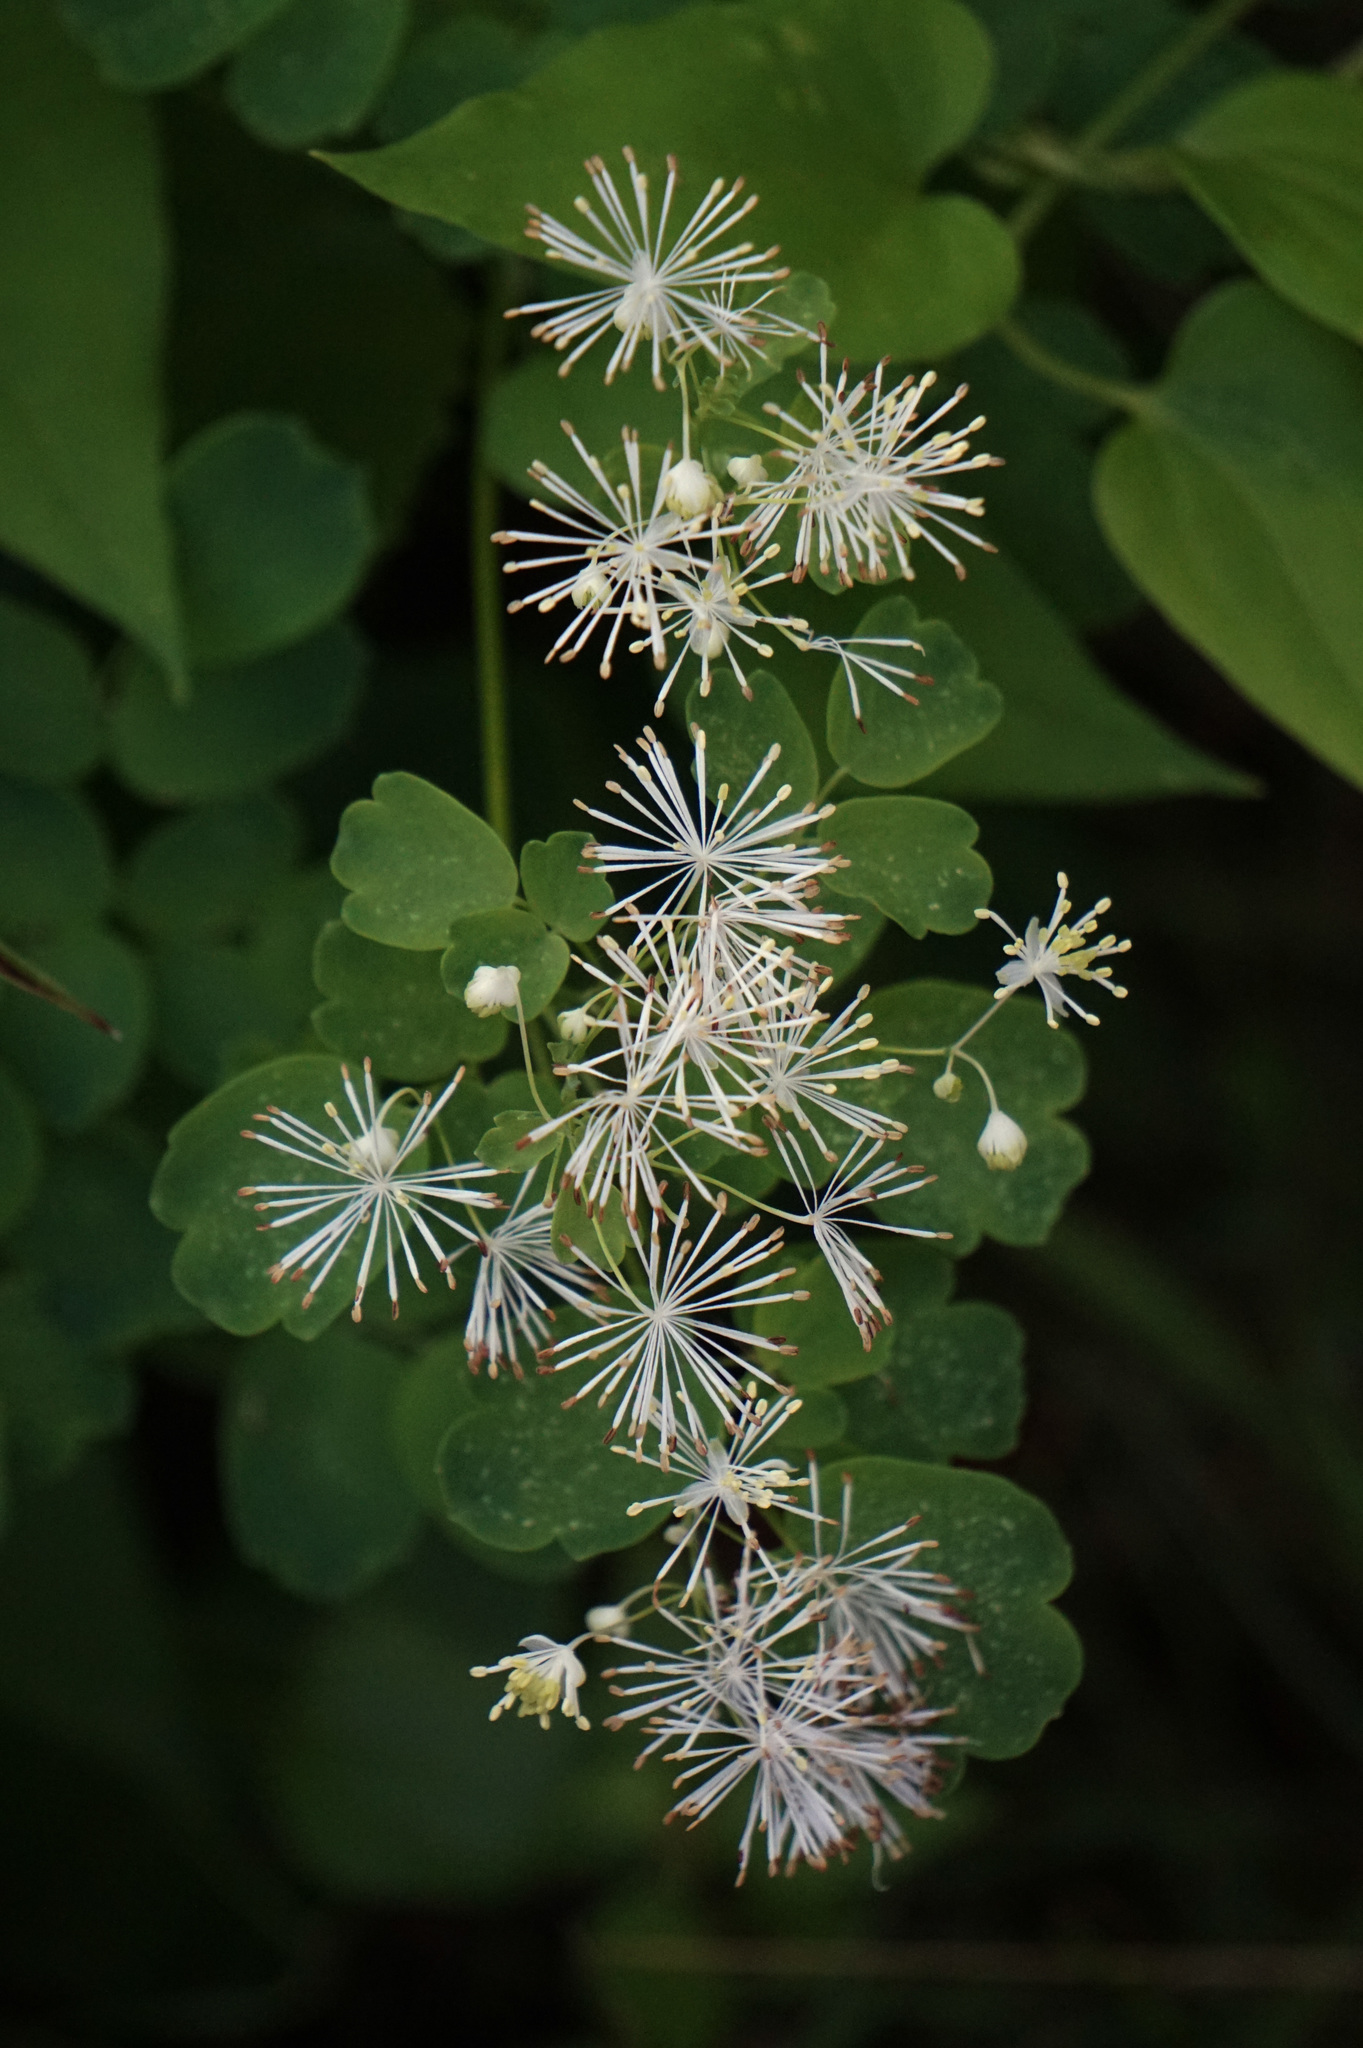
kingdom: Plantae
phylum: Tracheophyta
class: Magnoliopsida
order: Ranunculales
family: Ranunculaceae
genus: Thalictrum
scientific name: Thalictrum pubescens
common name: King-of-the-meadow
